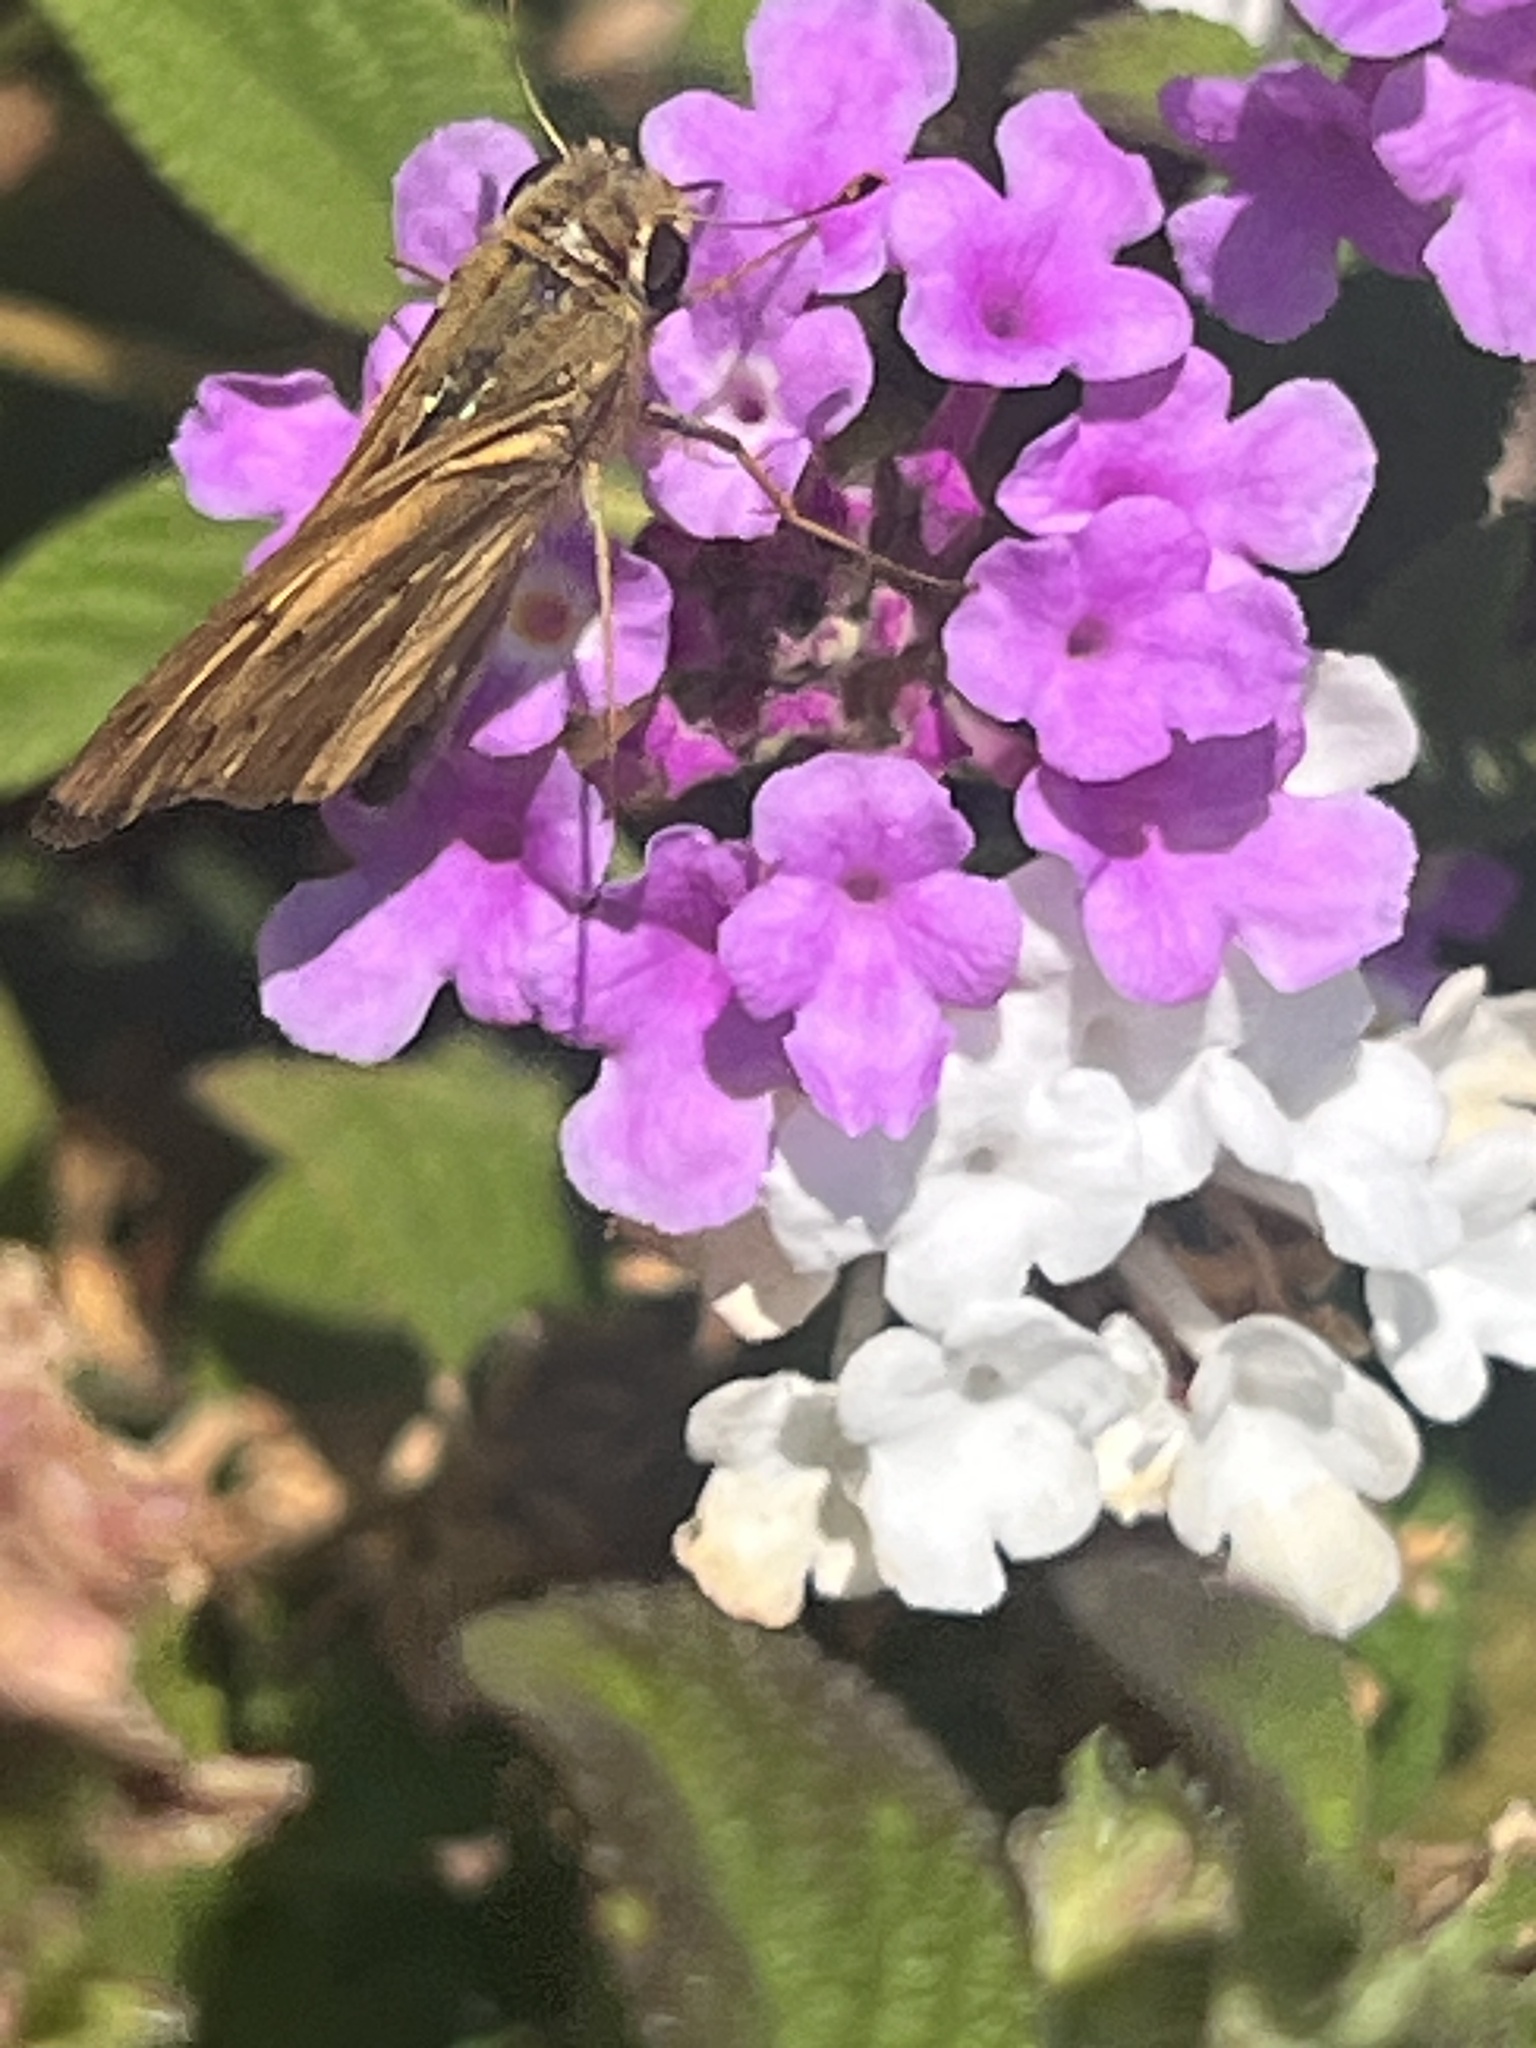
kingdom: Animalia
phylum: Arthropoda
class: Insecta
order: Lepidoptera
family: Hesperiidae
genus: Hylephila
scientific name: Hylephila phyleus
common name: Fiery skipper
